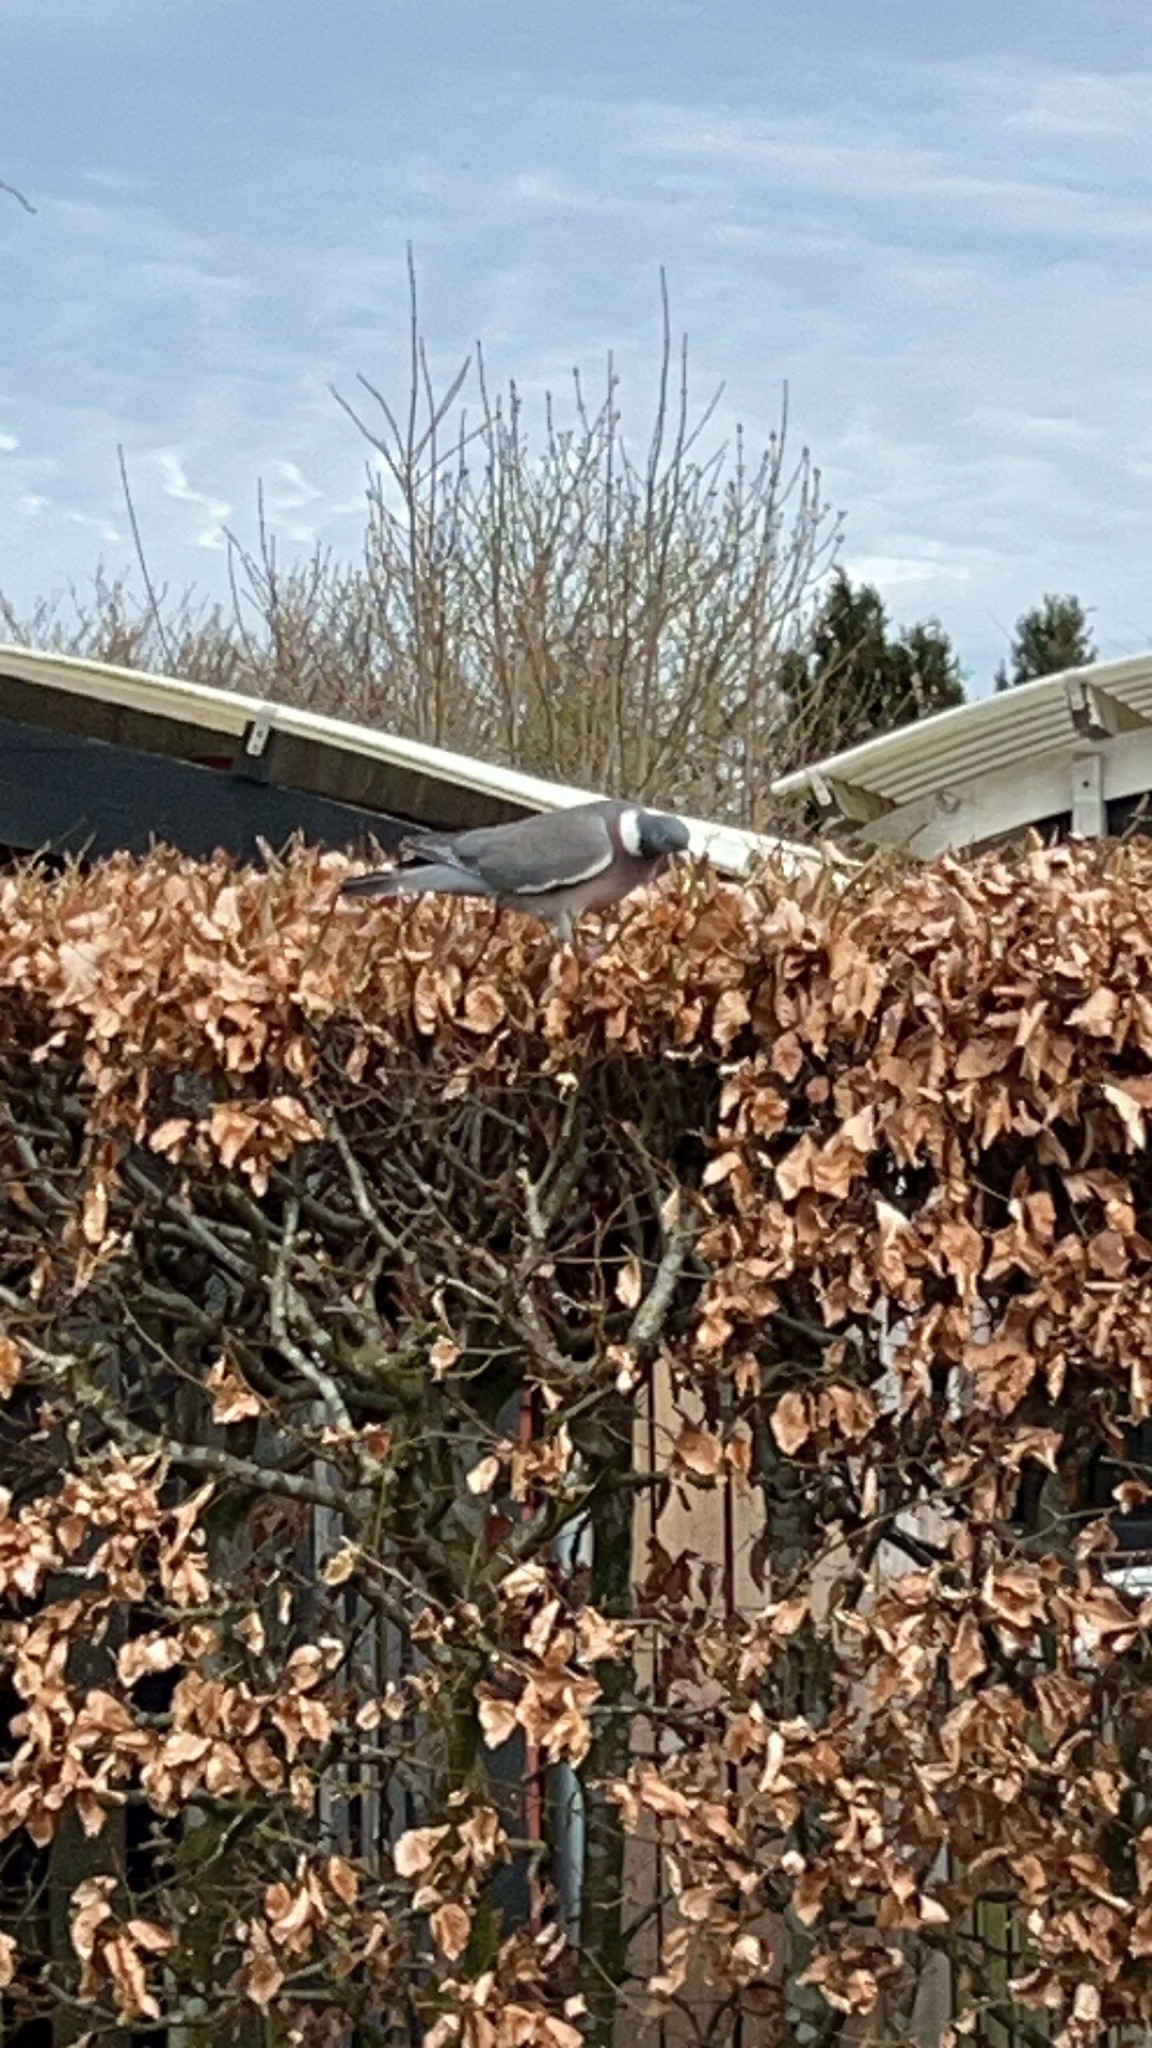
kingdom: Animalia
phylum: Chordata
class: Aves
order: Columbiformes
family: Columbidae
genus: Columba
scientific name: Columba palumbus
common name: Common wood pigeon
